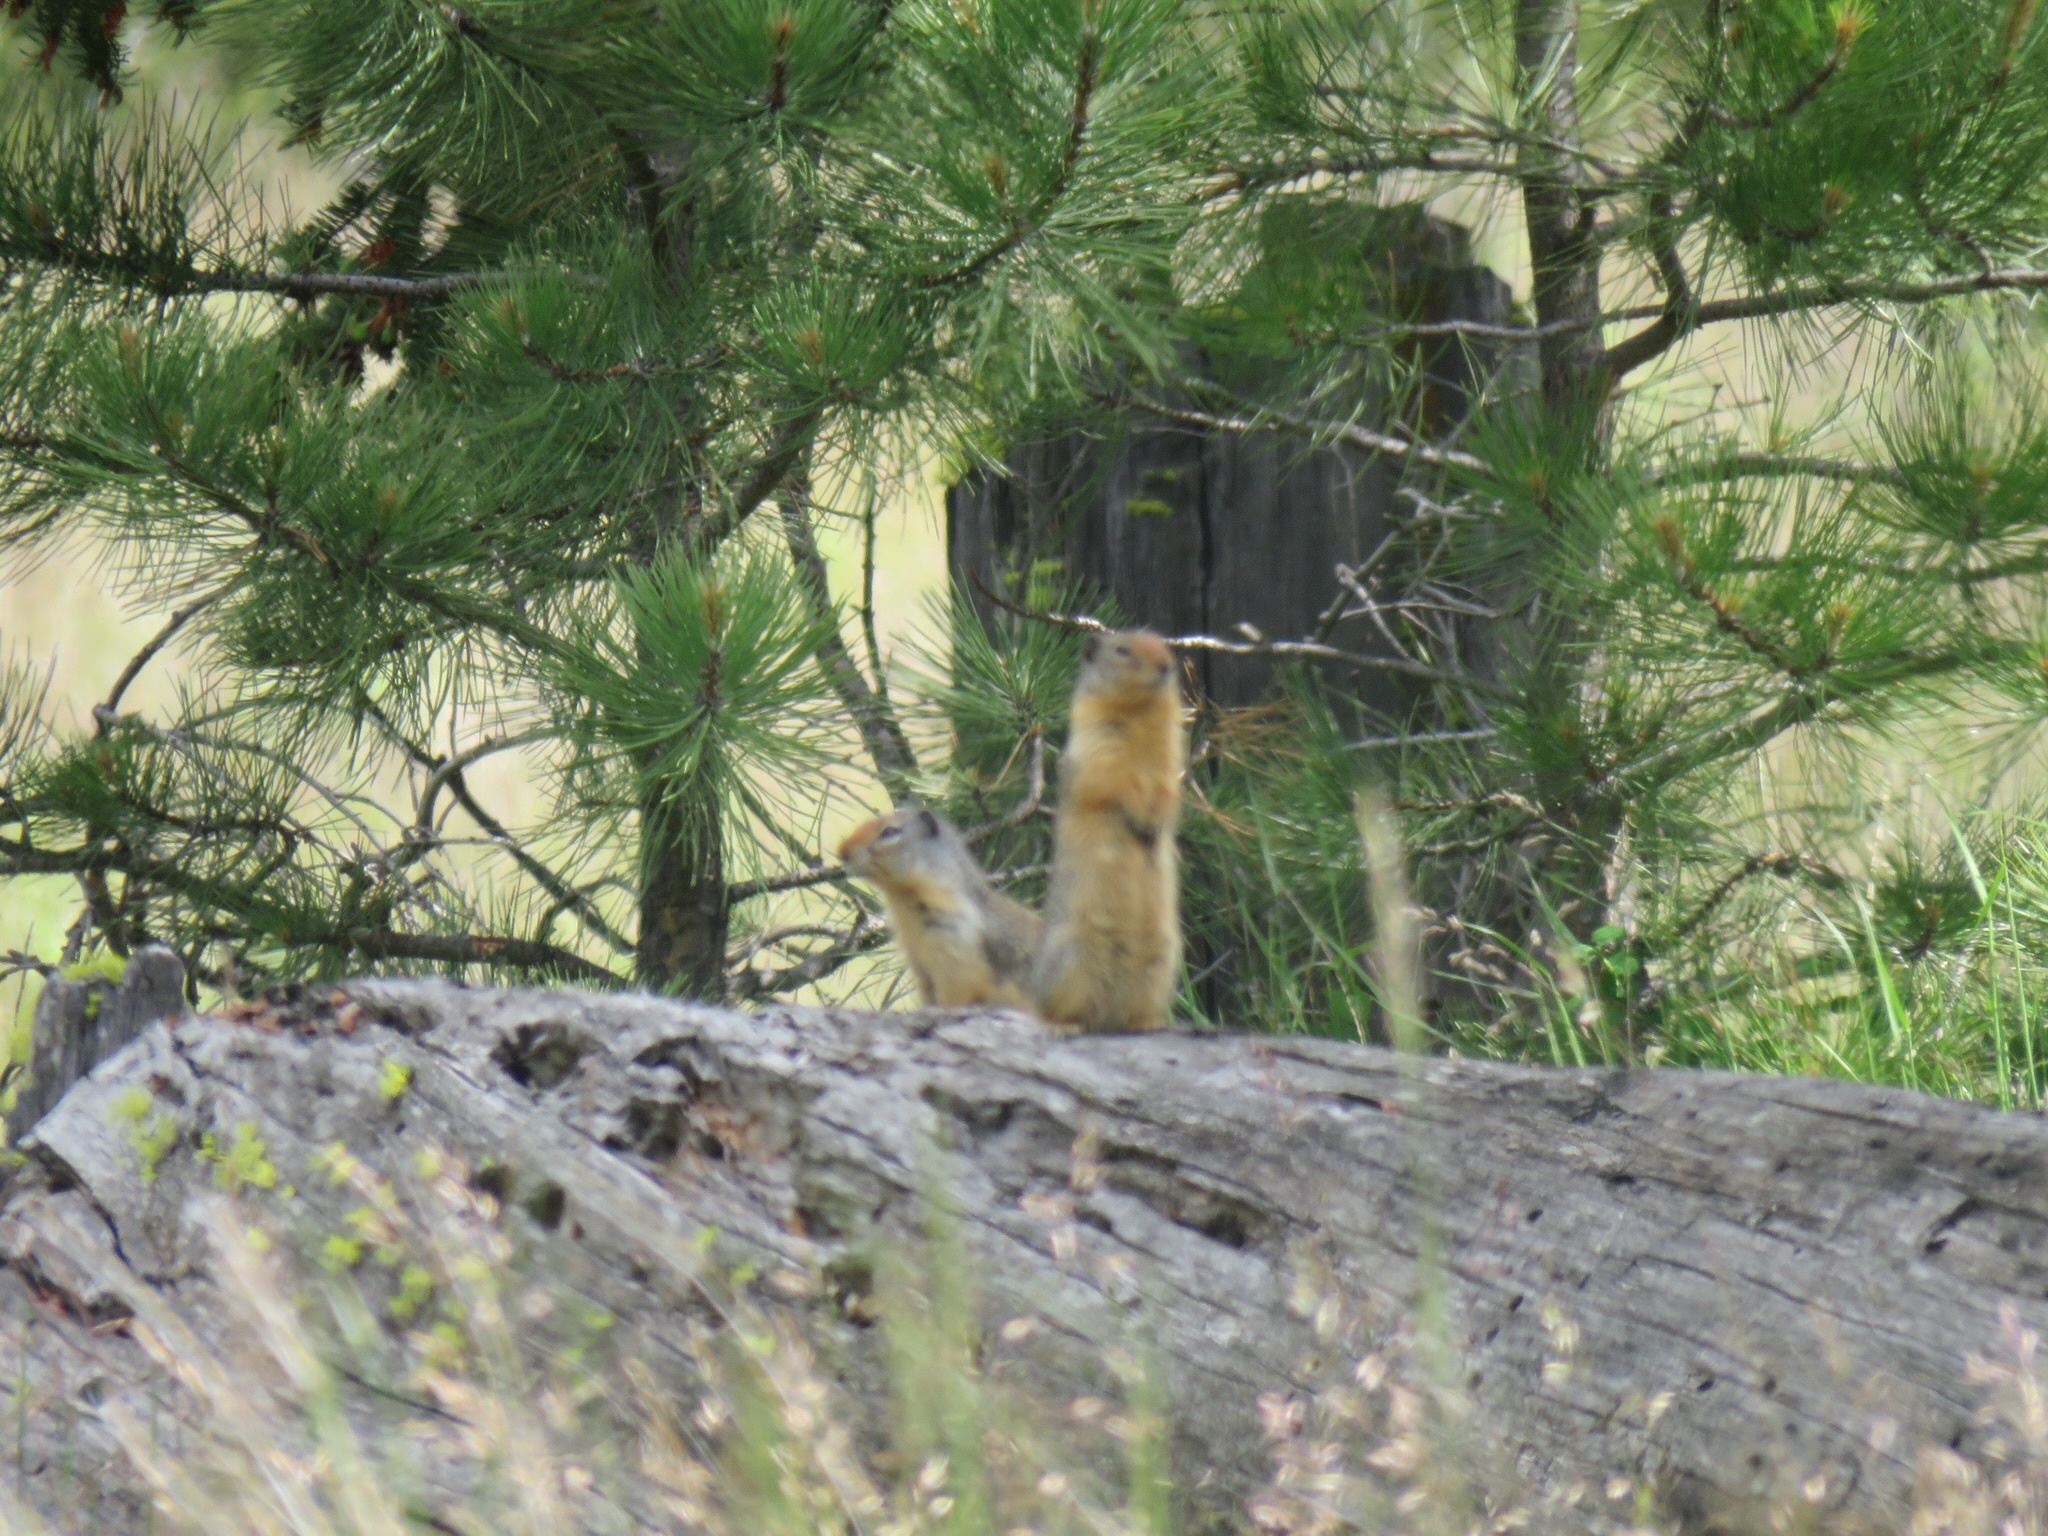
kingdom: Animalia
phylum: Chordata
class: Mammalia
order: Rodentia
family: Sciuridae
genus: Urocitellus
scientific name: Urocitellus columbianus
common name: Columbian ground squirrel
